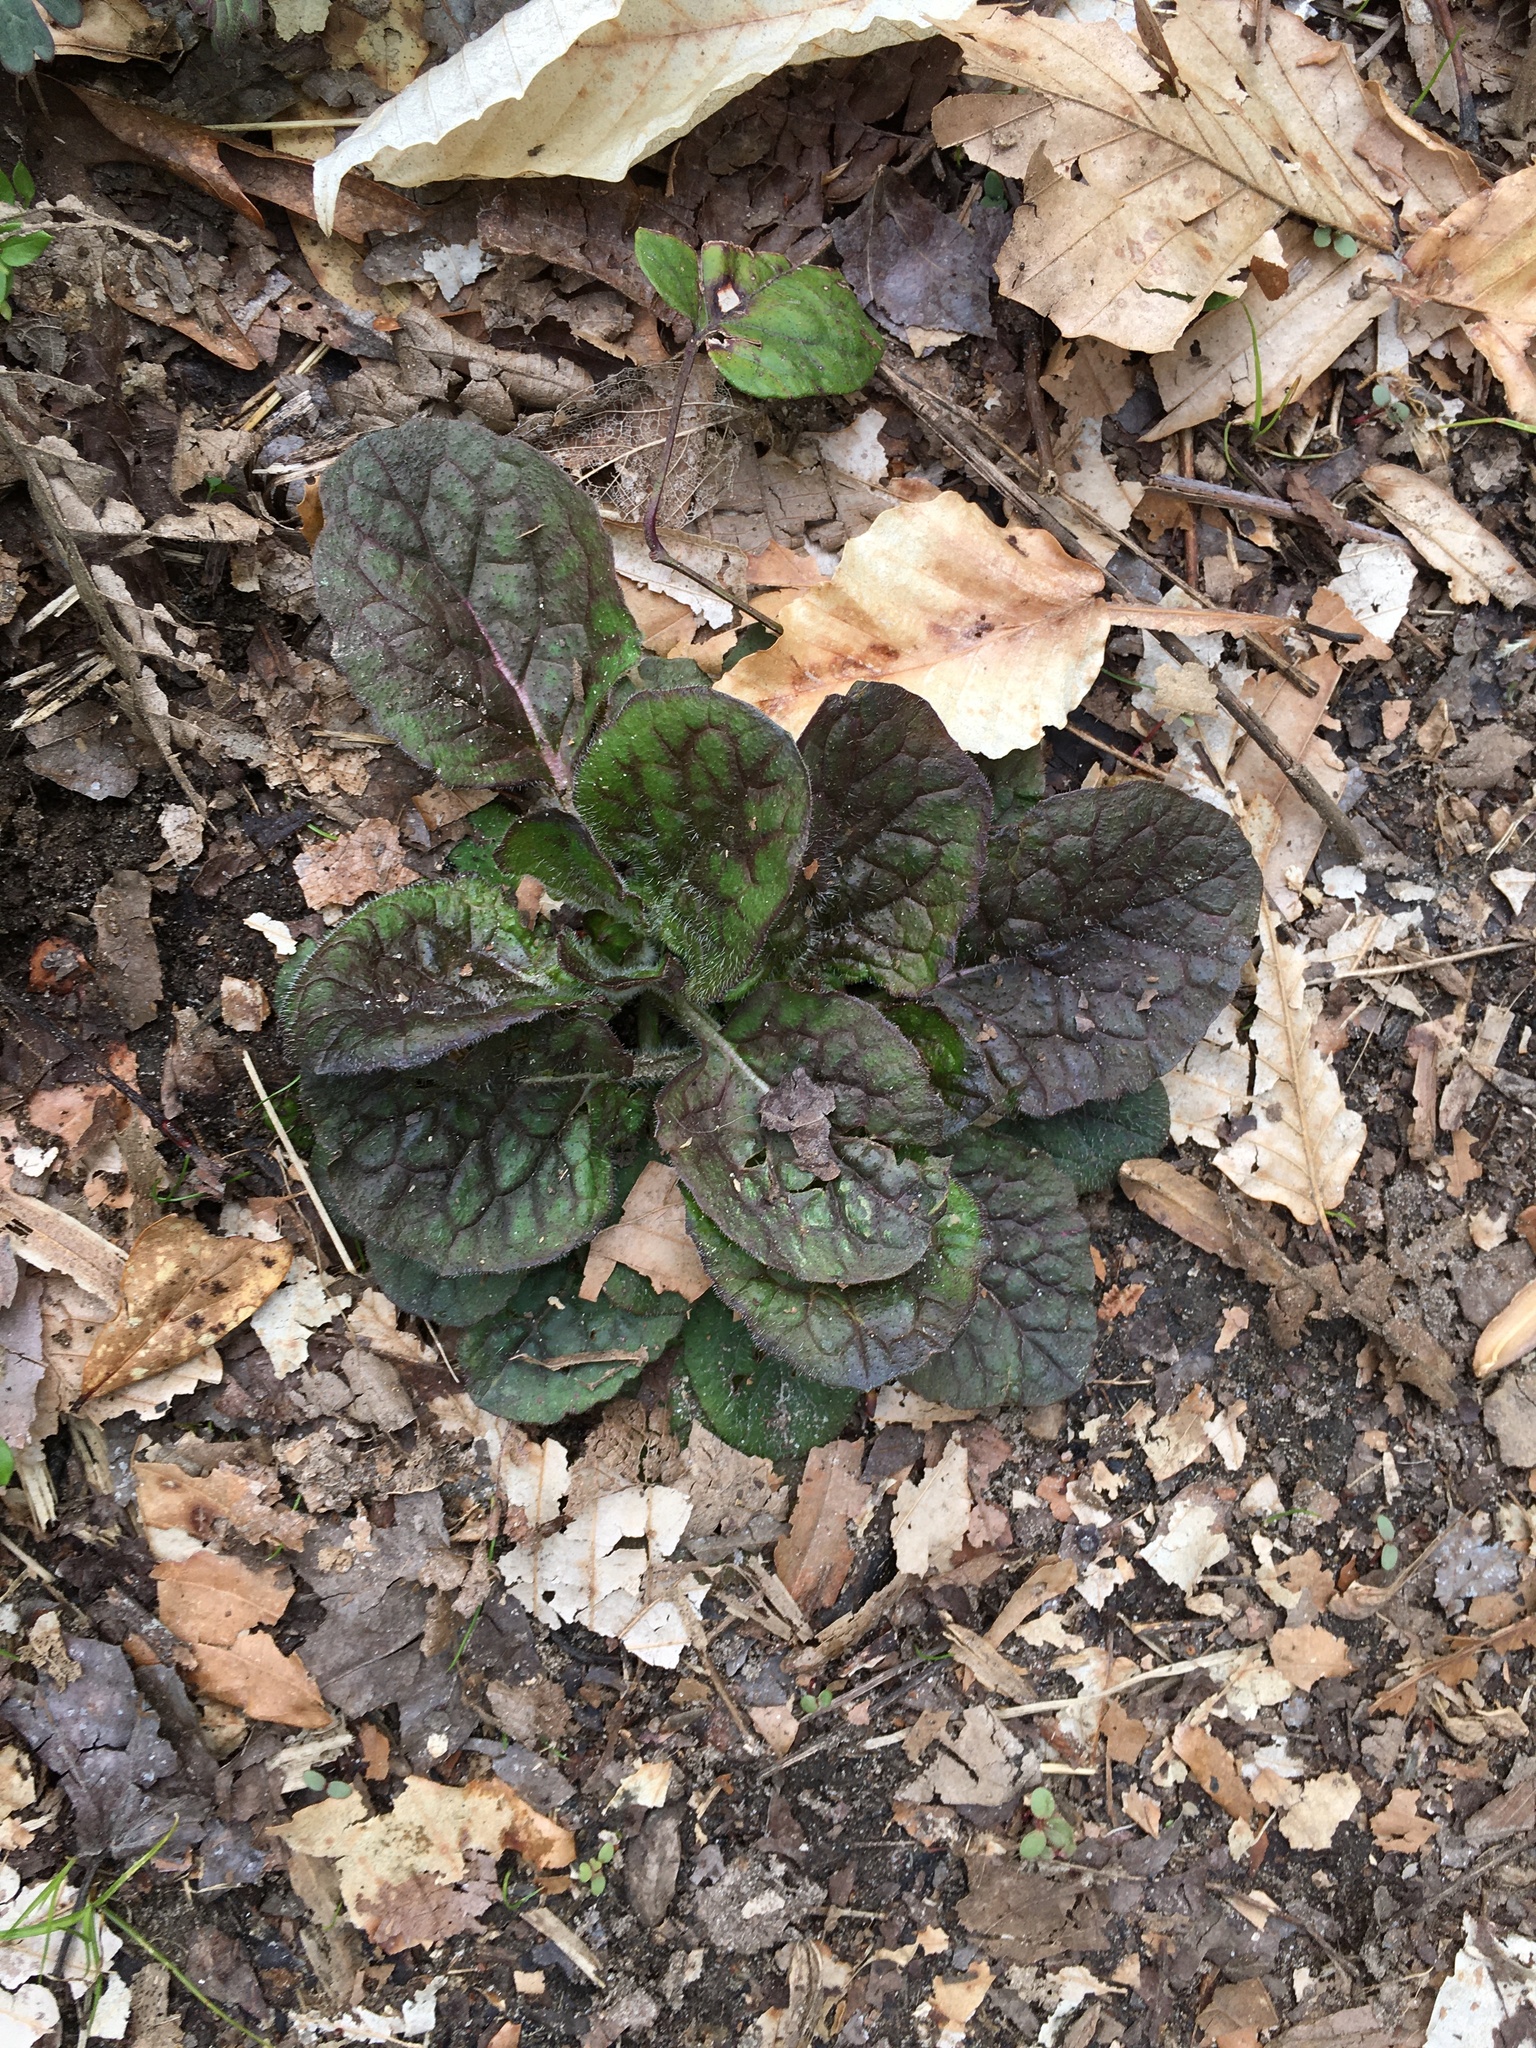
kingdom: Plantae
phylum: Tracheophyta
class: Magnoliopsida
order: Lamiales
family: Lamiaceae
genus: Salvia
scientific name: Salvia lyrata
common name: Cancerweed
